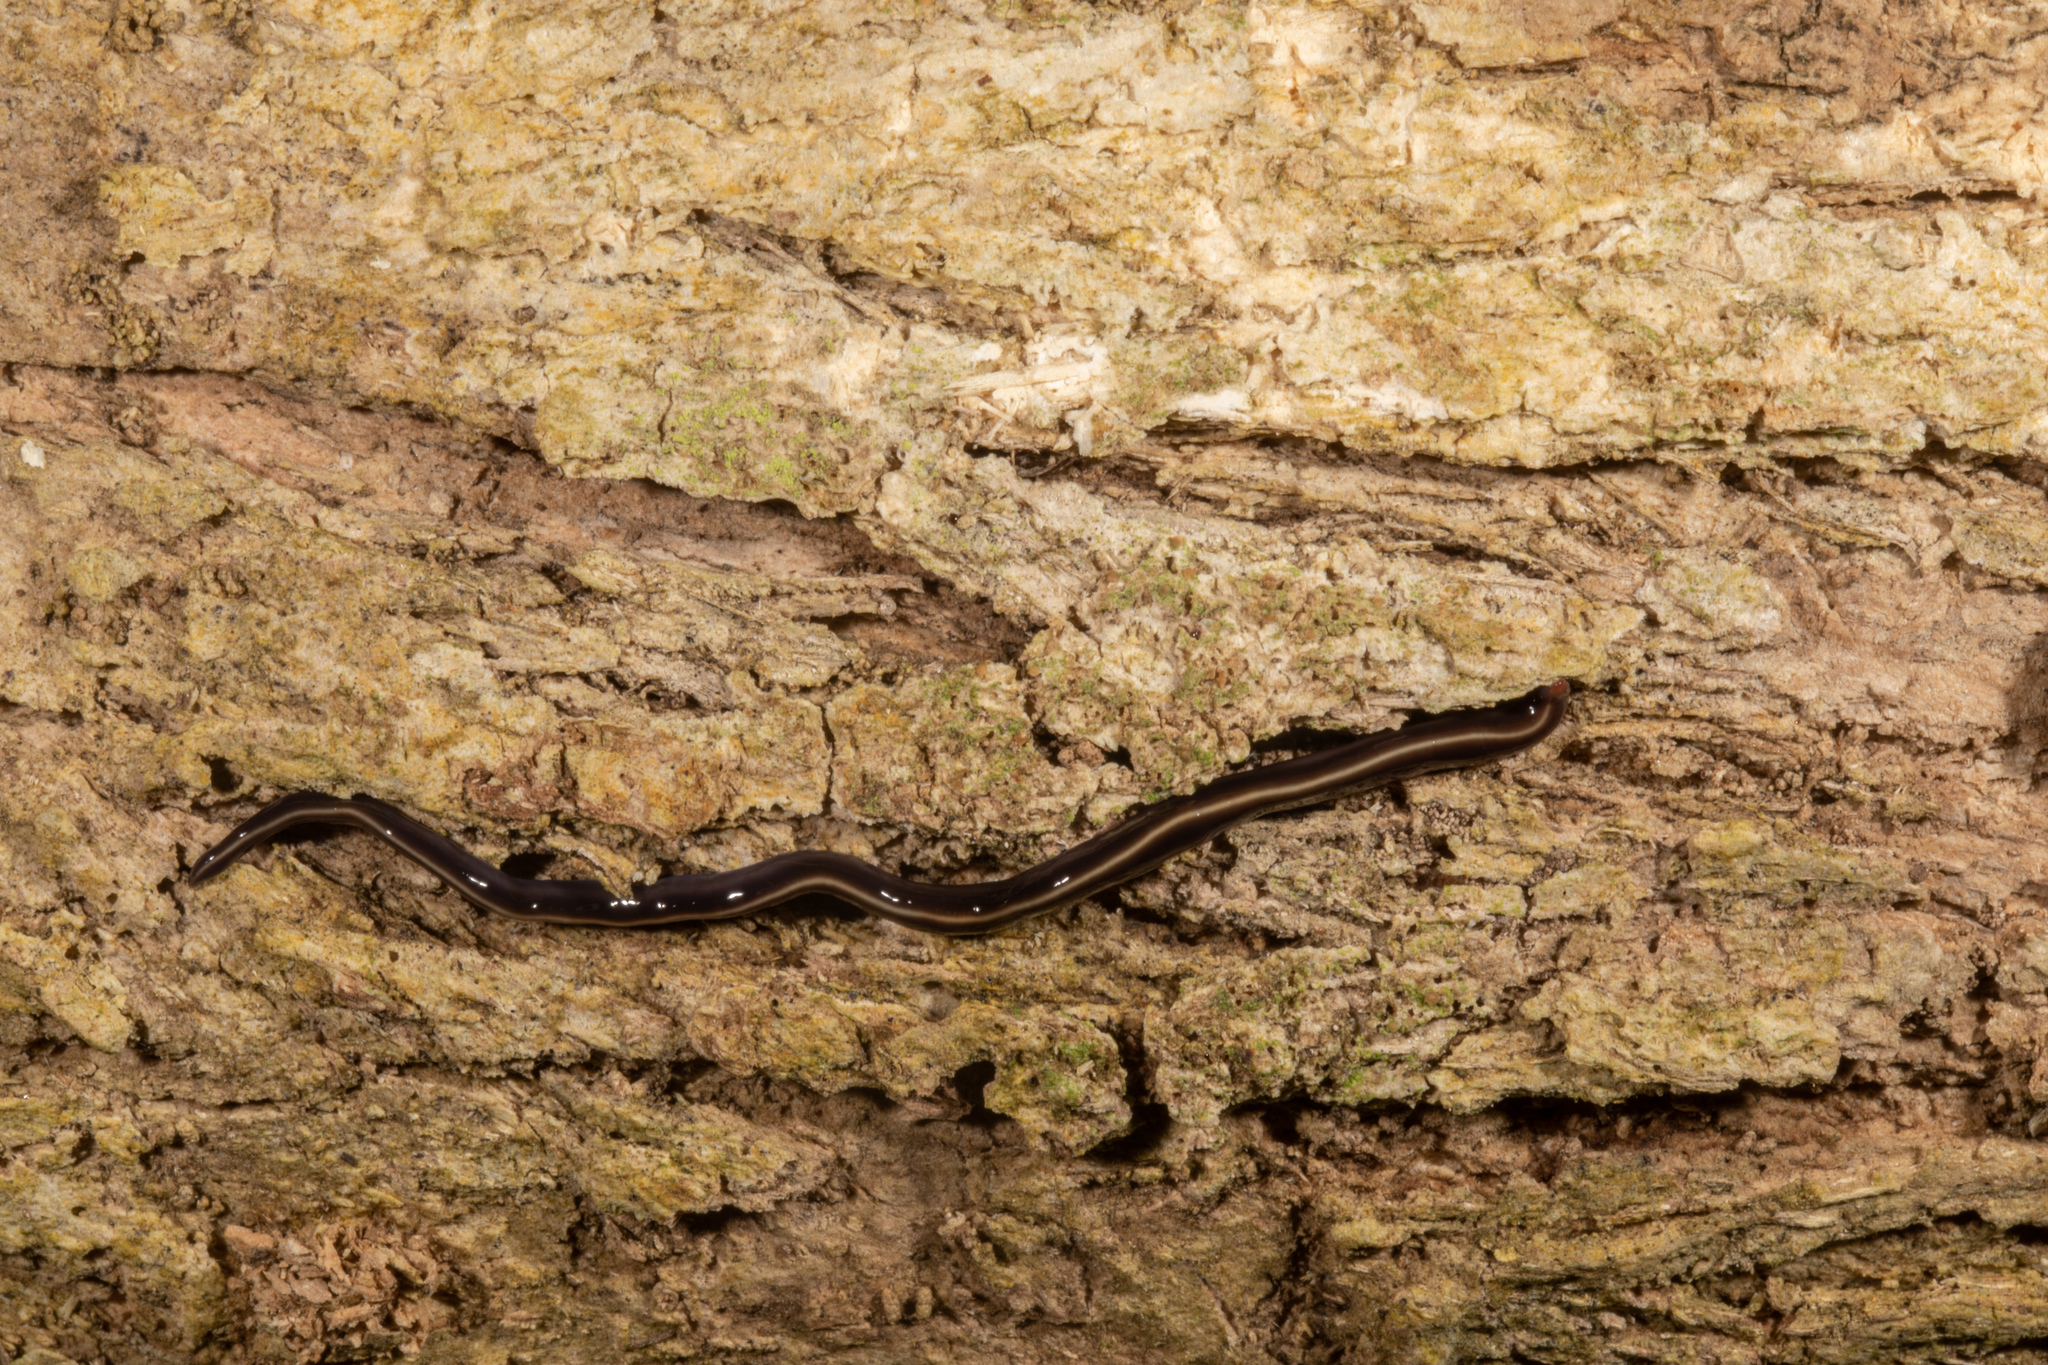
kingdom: Animalia
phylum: Platyhelminthes
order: Tricladida
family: Geoplanidae
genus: Caenoplana
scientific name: Caenoplana coerulea
